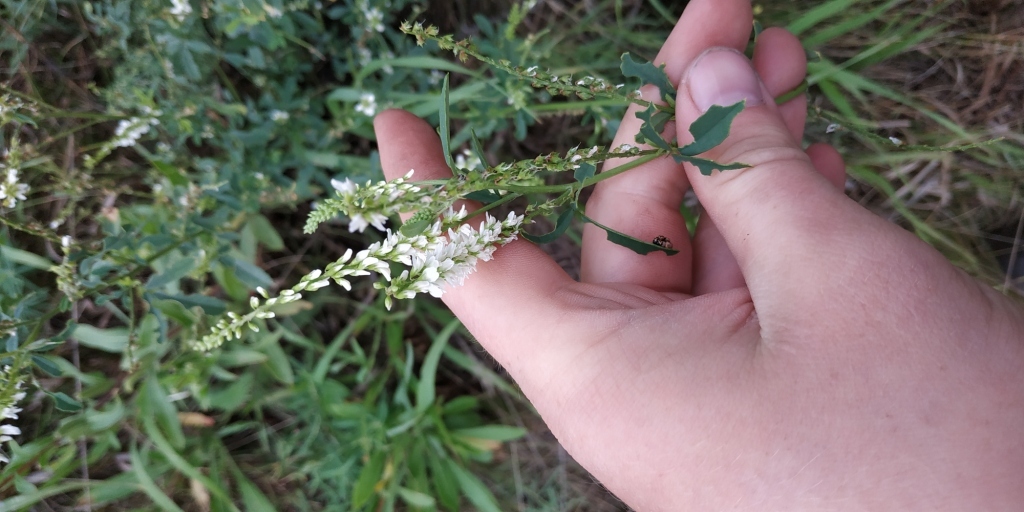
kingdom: Plantae
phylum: Tracheophyta
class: Magnoliopsida
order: Fabales
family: Fabaceae
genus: Melilotus
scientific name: Melilotus albus
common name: White melilot
